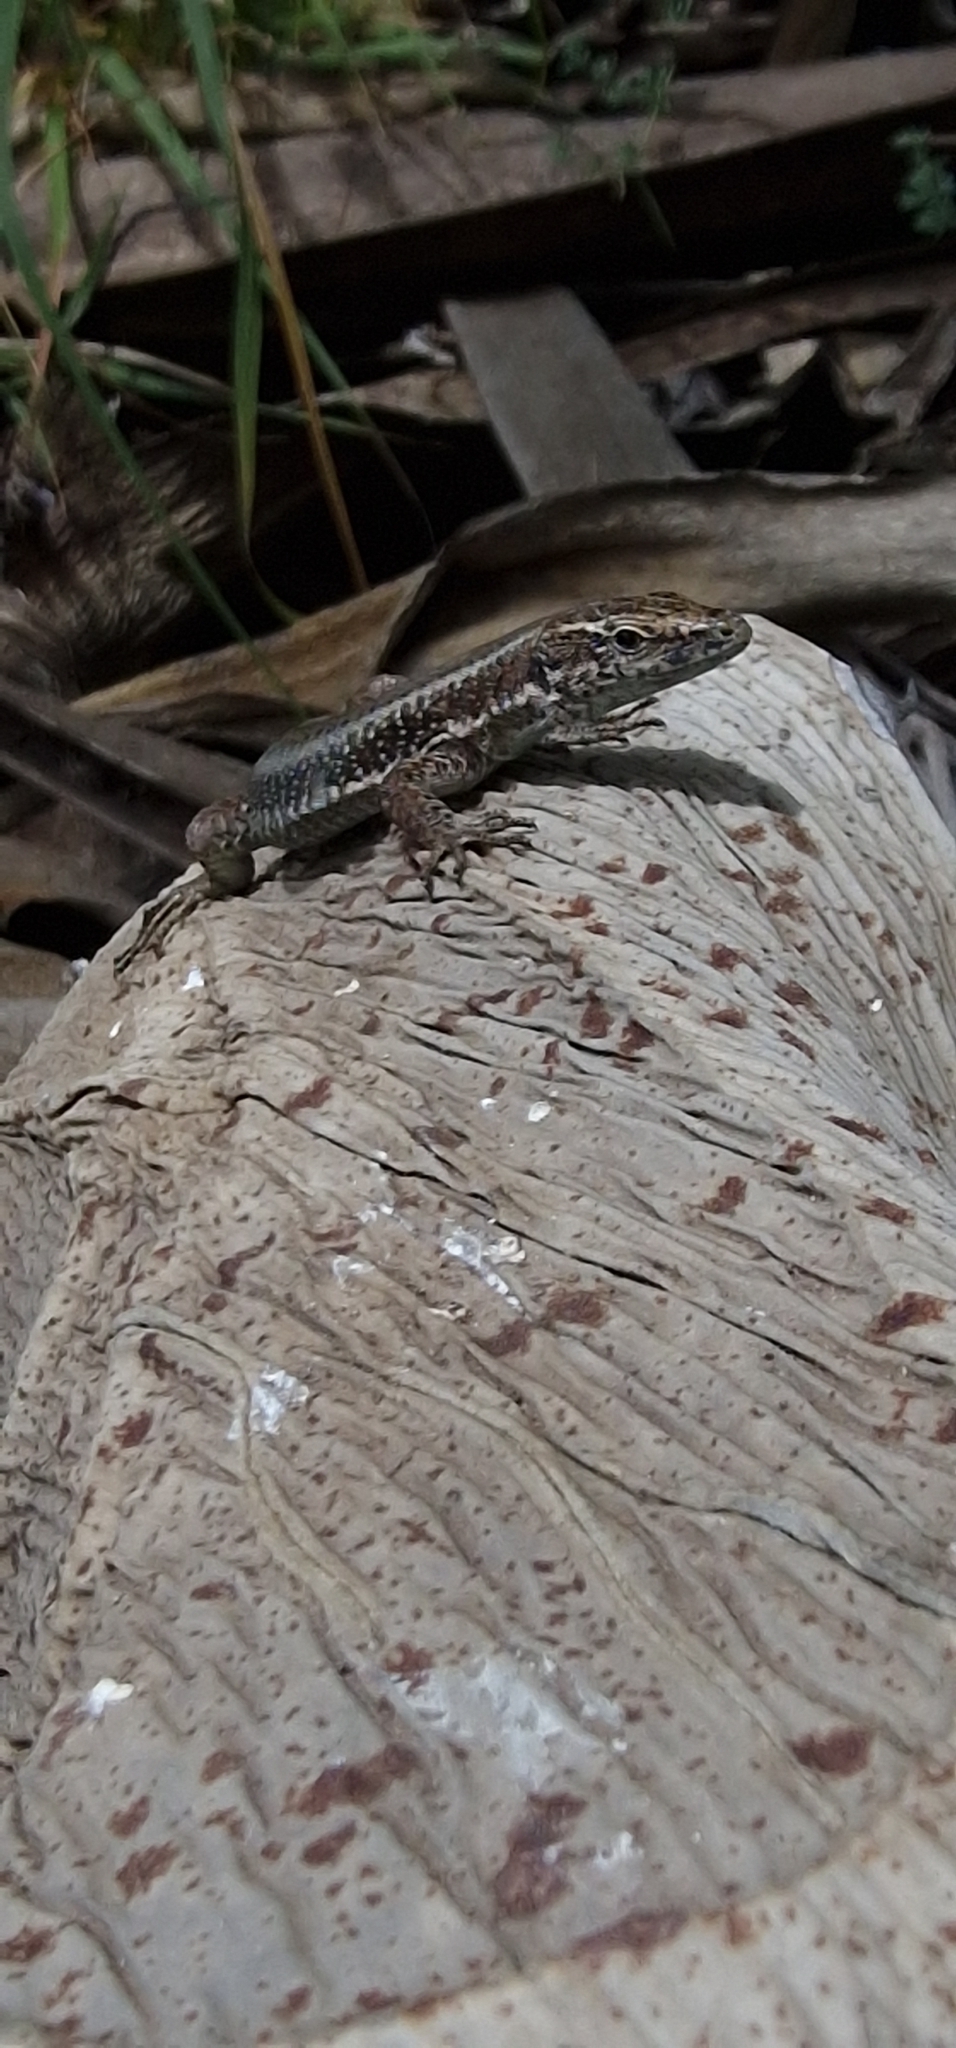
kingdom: Animalia
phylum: Chordata
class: Squamata
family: Lacertidae
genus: Teira
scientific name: Teira dugesii
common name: Madeira lizard
